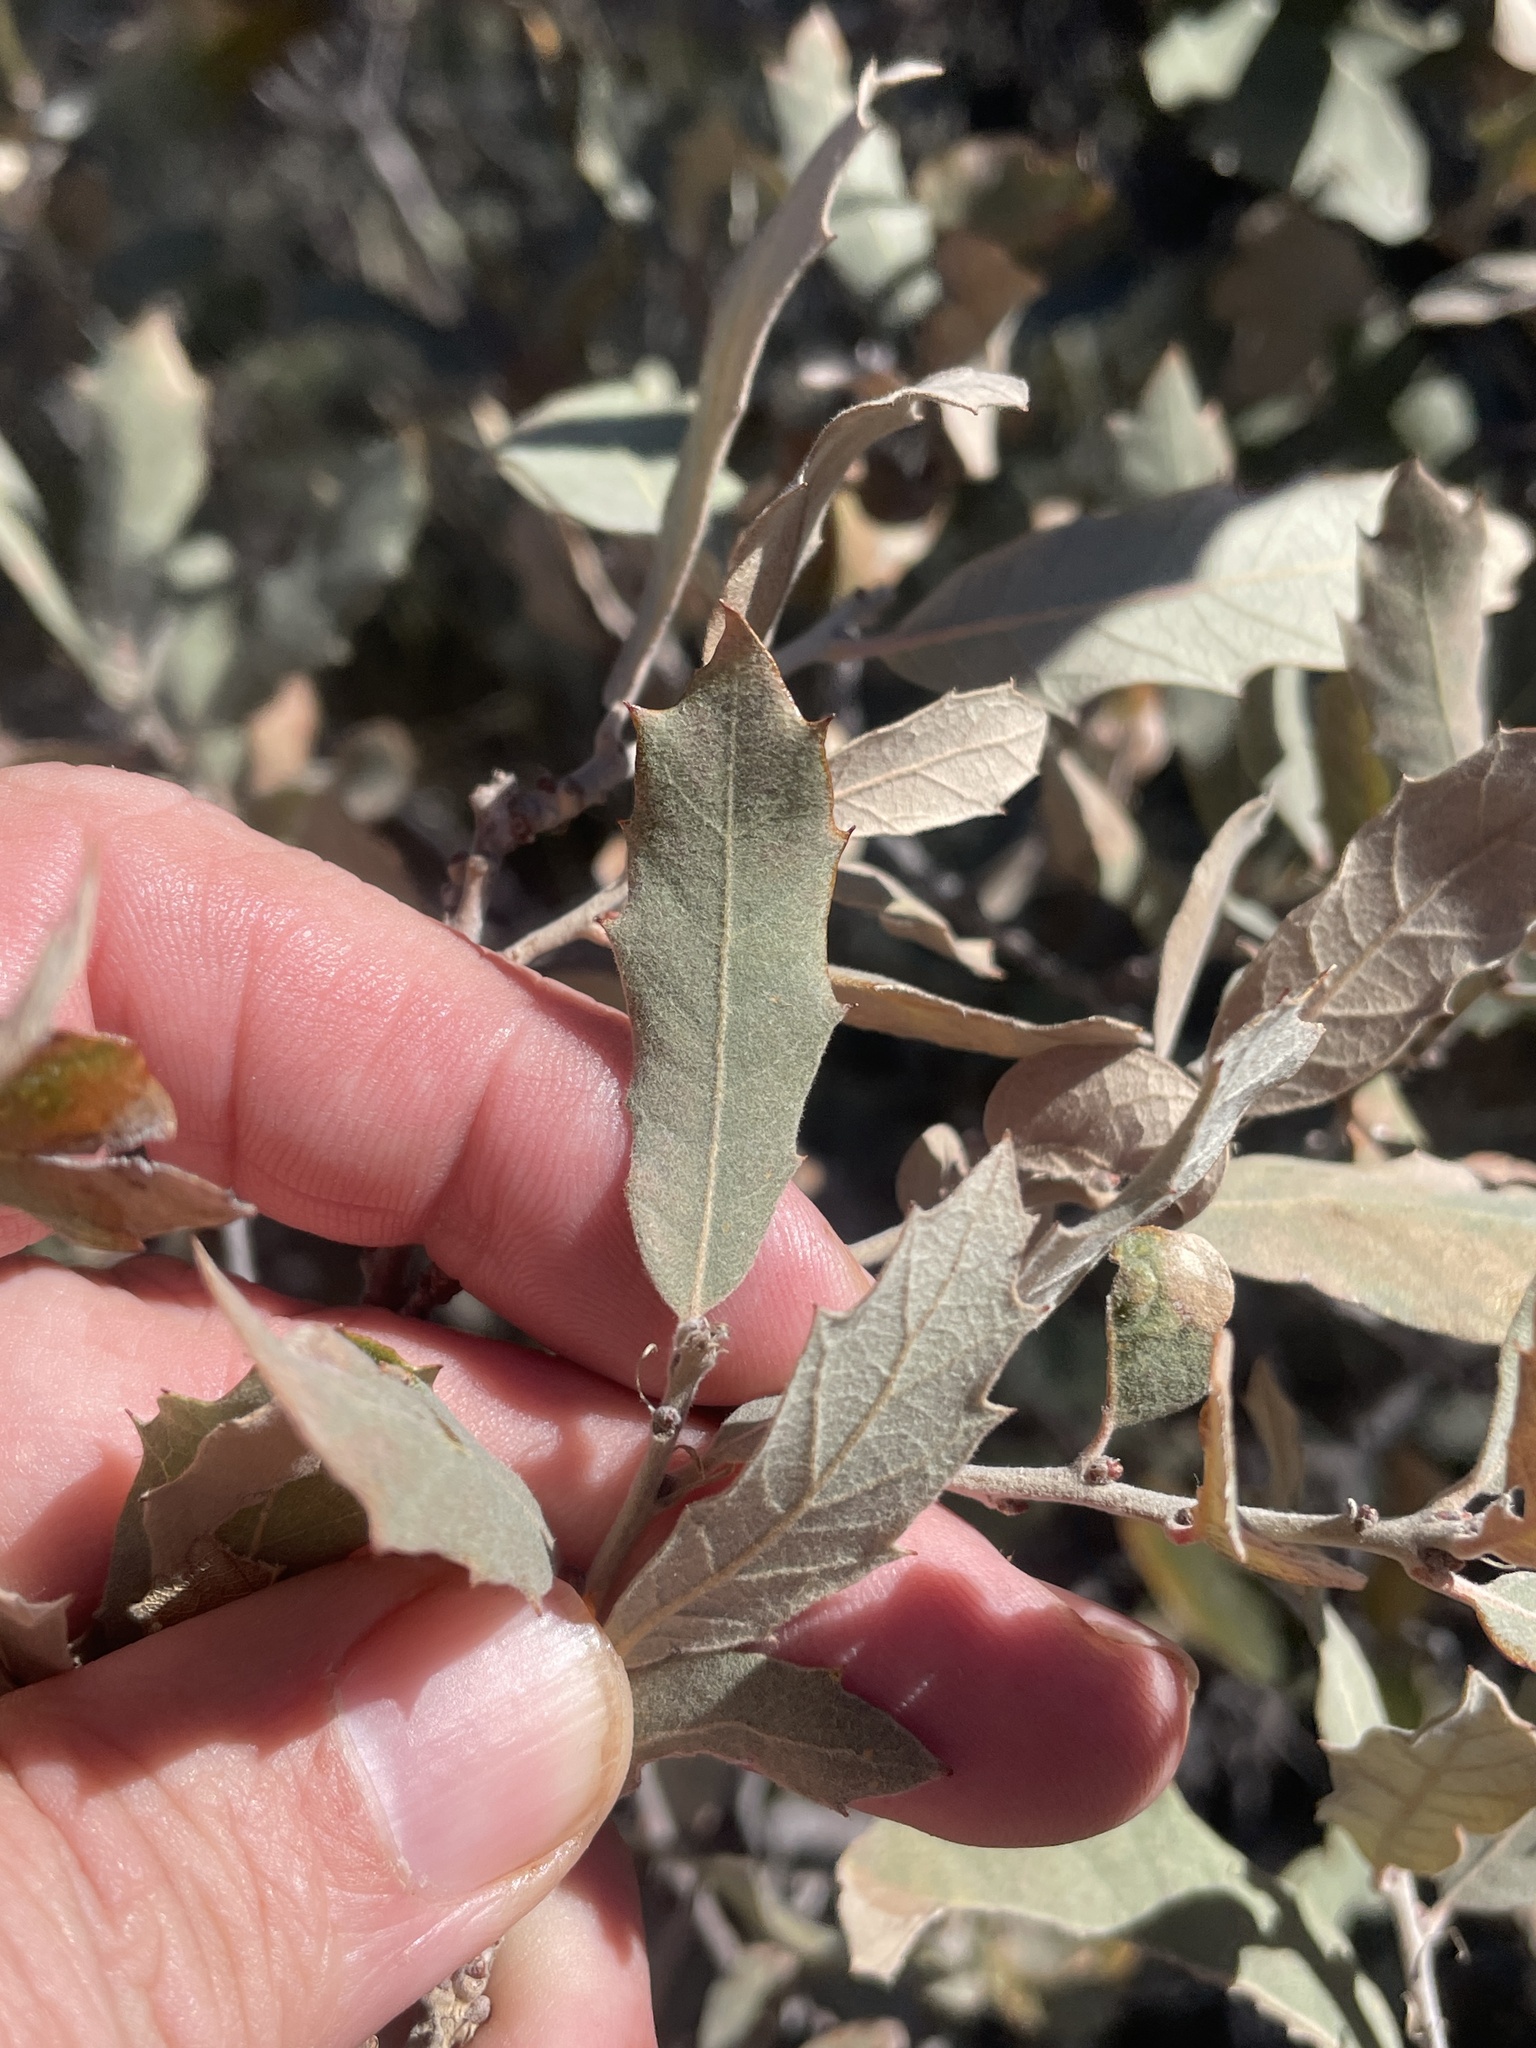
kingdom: Plantae
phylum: Tracheophyta
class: Magnoliopsida
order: Fagales
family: Fagaceae
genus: Quercus
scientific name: Quercus mohriana
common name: Mohr oak
